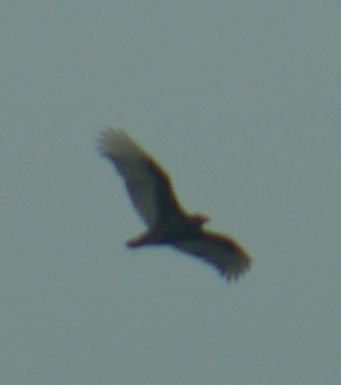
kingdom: Animalia
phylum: Chordata
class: Aves
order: Accipitriformes
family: Cathartidae
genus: Cathartes
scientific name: Cathartes aura
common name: Turkey vulture
